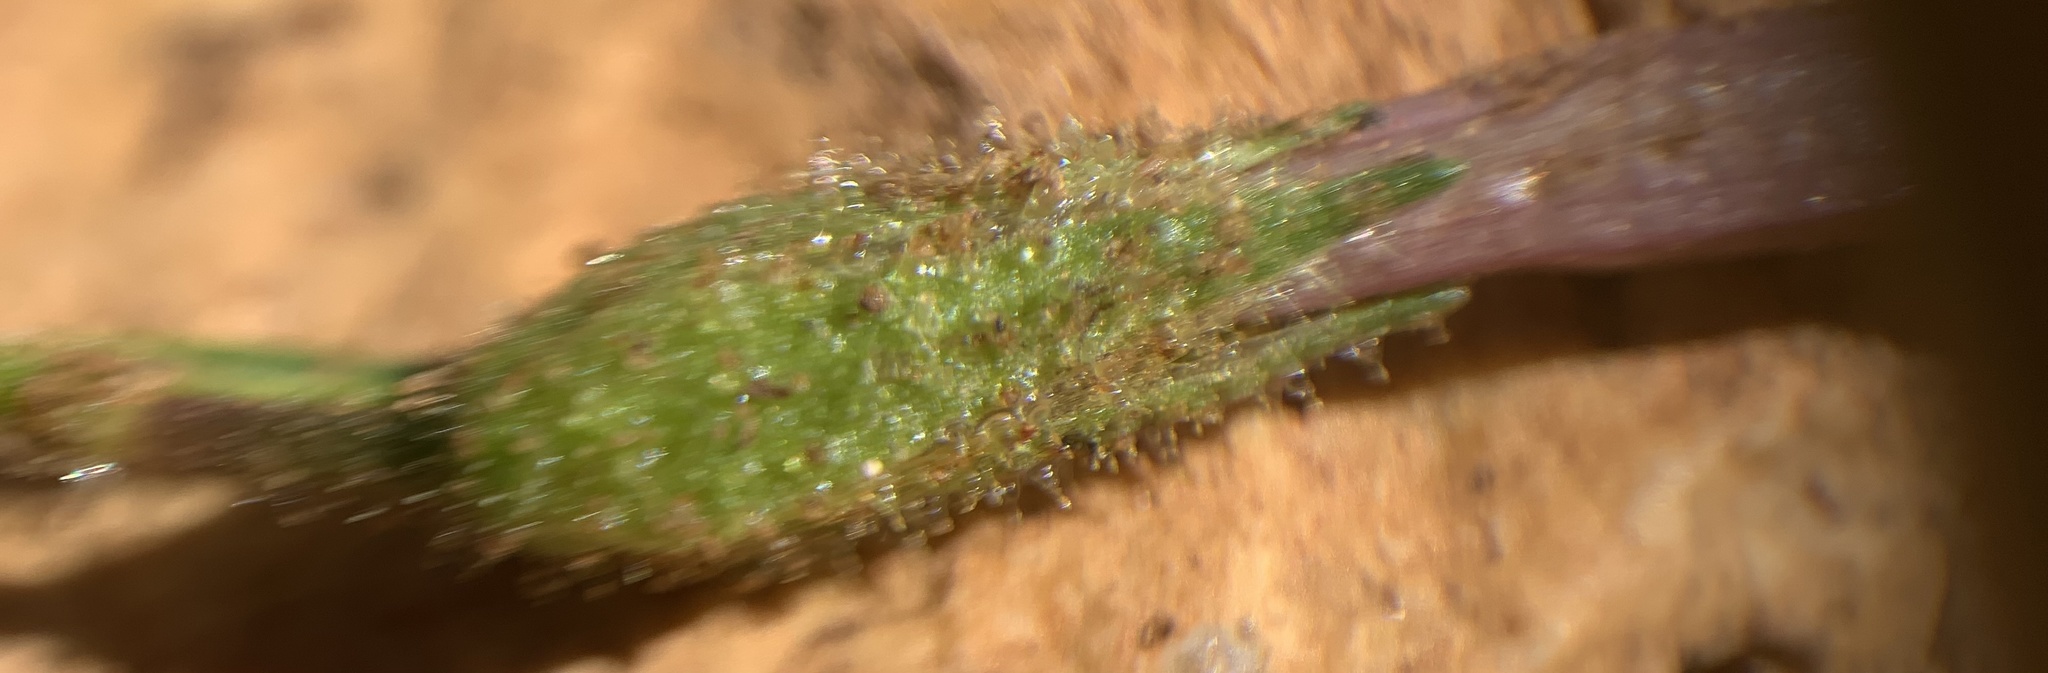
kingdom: Plantae
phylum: Tracheophyta
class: Magnoliopsida
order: Solanales
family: Solanaceae
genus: Nicotiana
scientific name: Nicotiana attenuata
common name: Coyote tobacco
